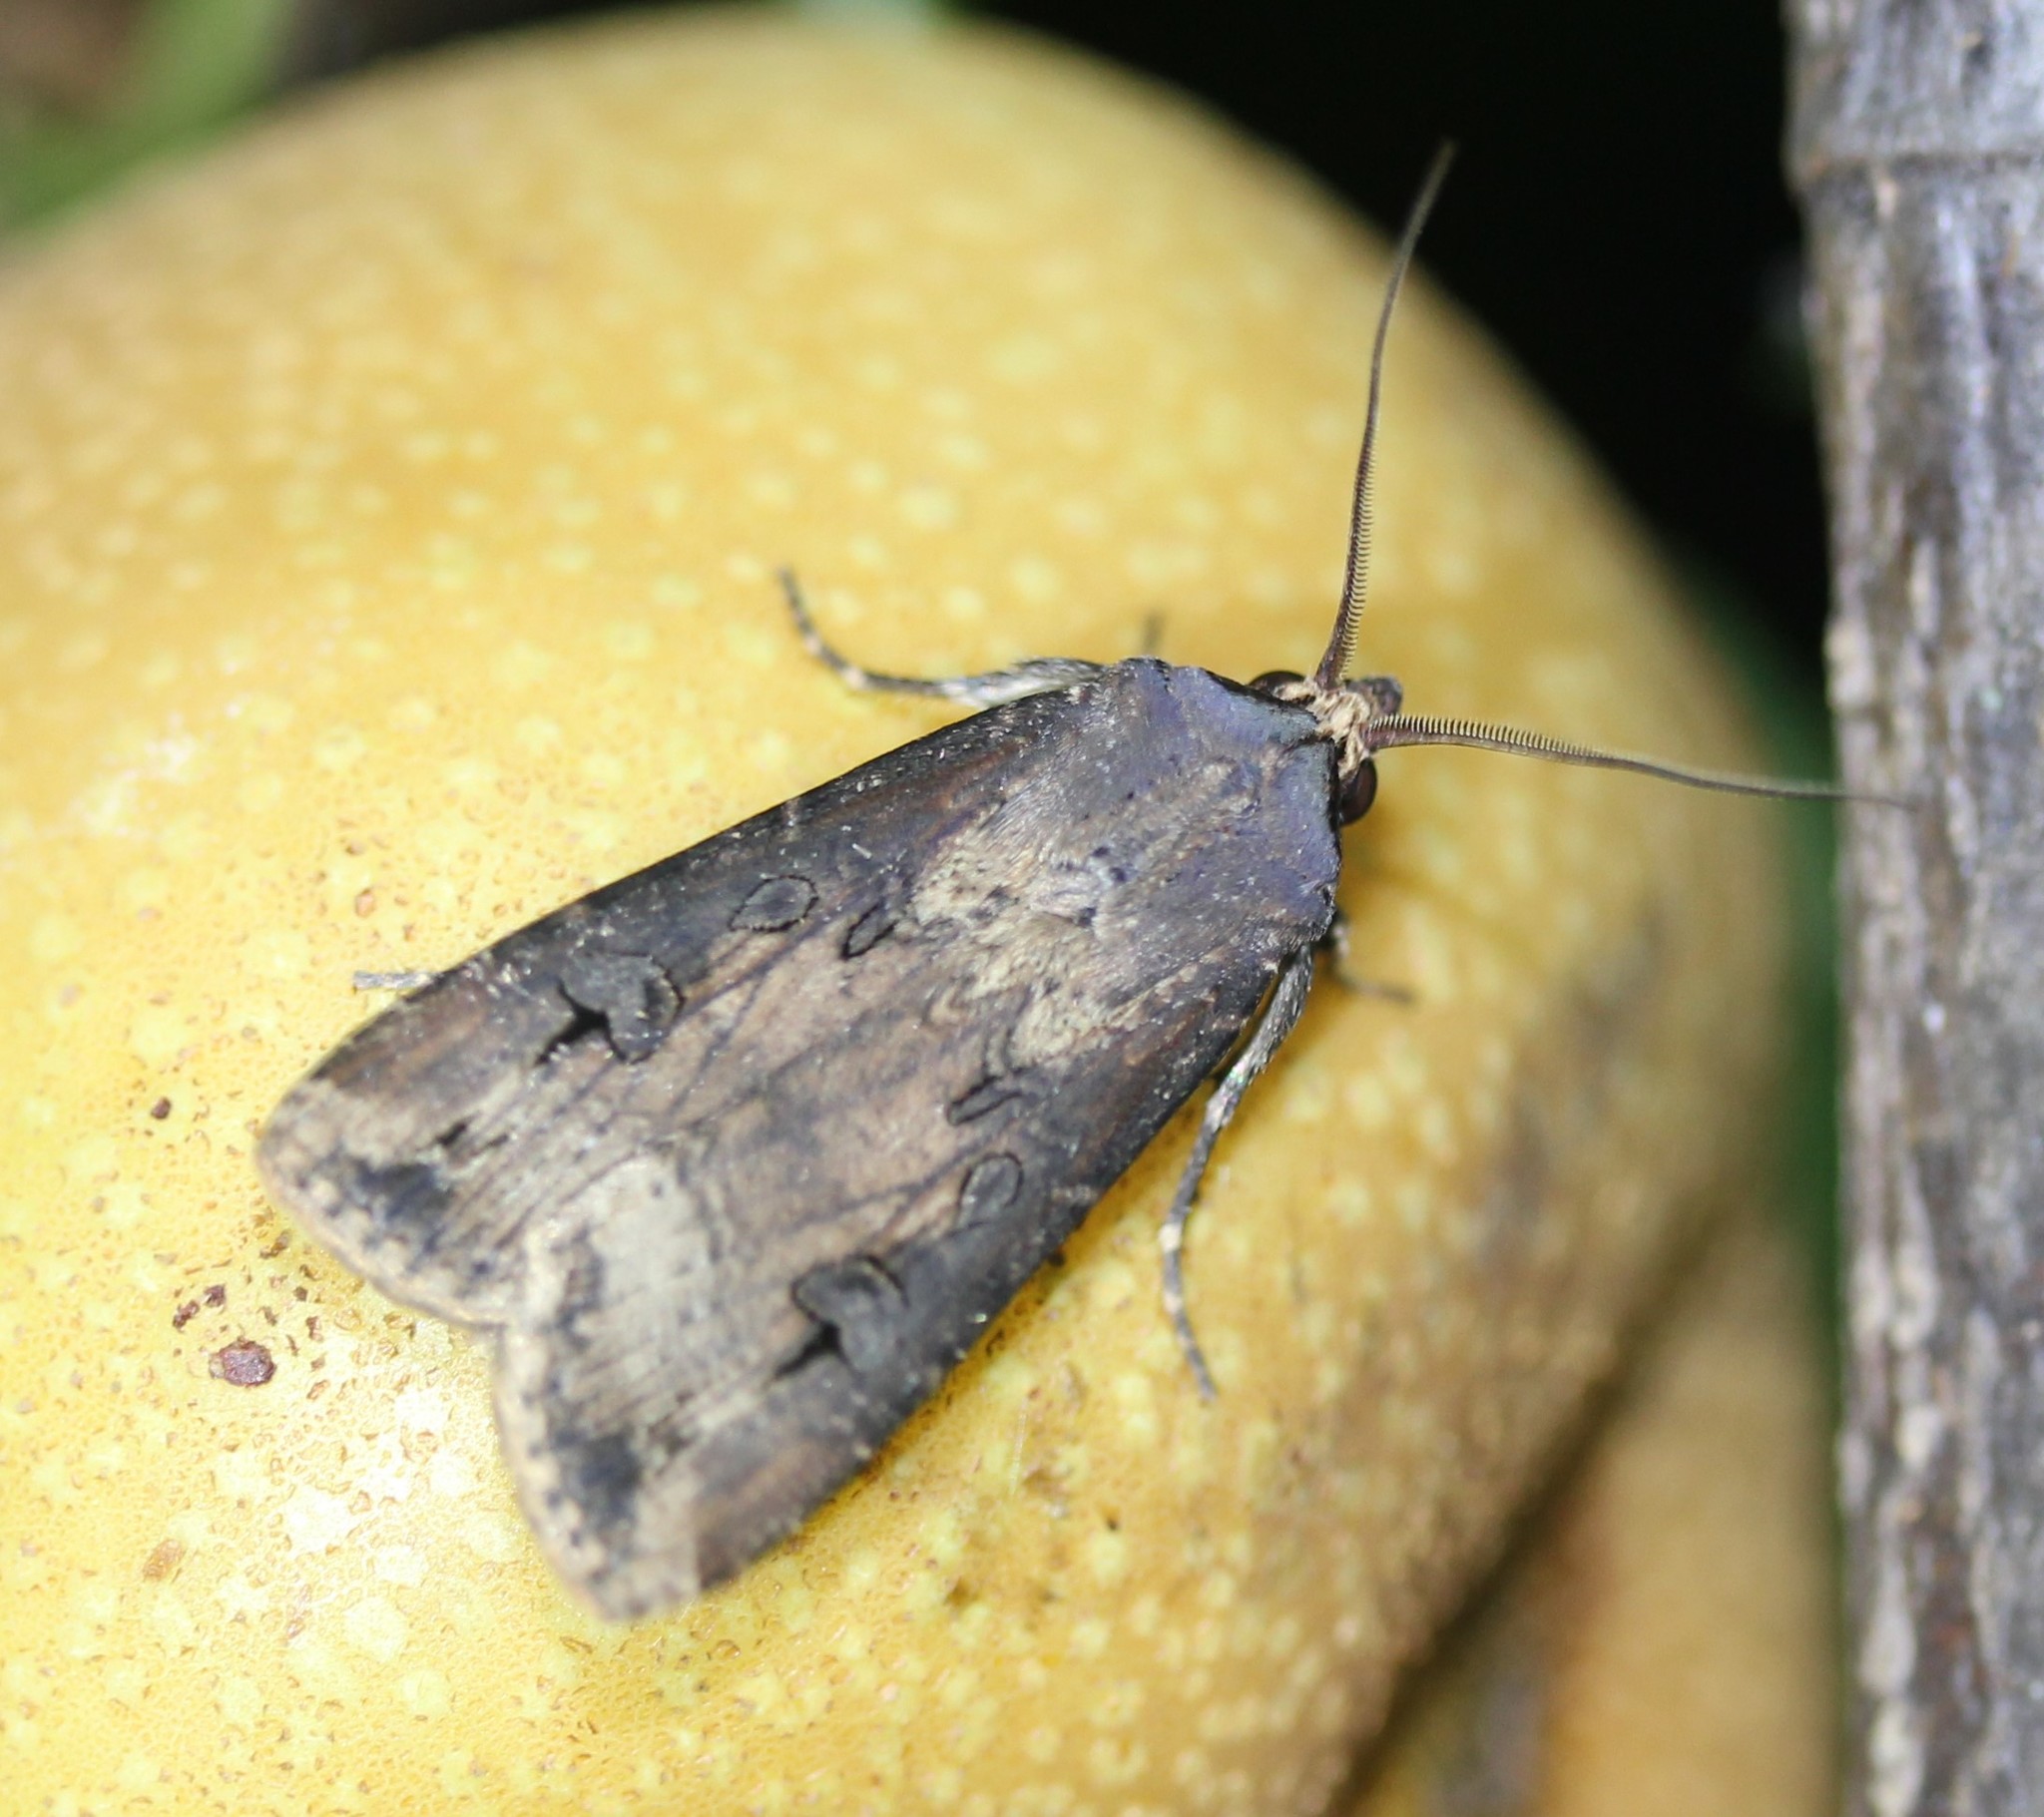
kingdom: Animalia
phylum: Arthropoda
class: Insecta
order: Lepidoptera
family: Noctuidae
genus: Agrotis
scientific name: Agrotis ipsilon
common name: Dark sword-grass
